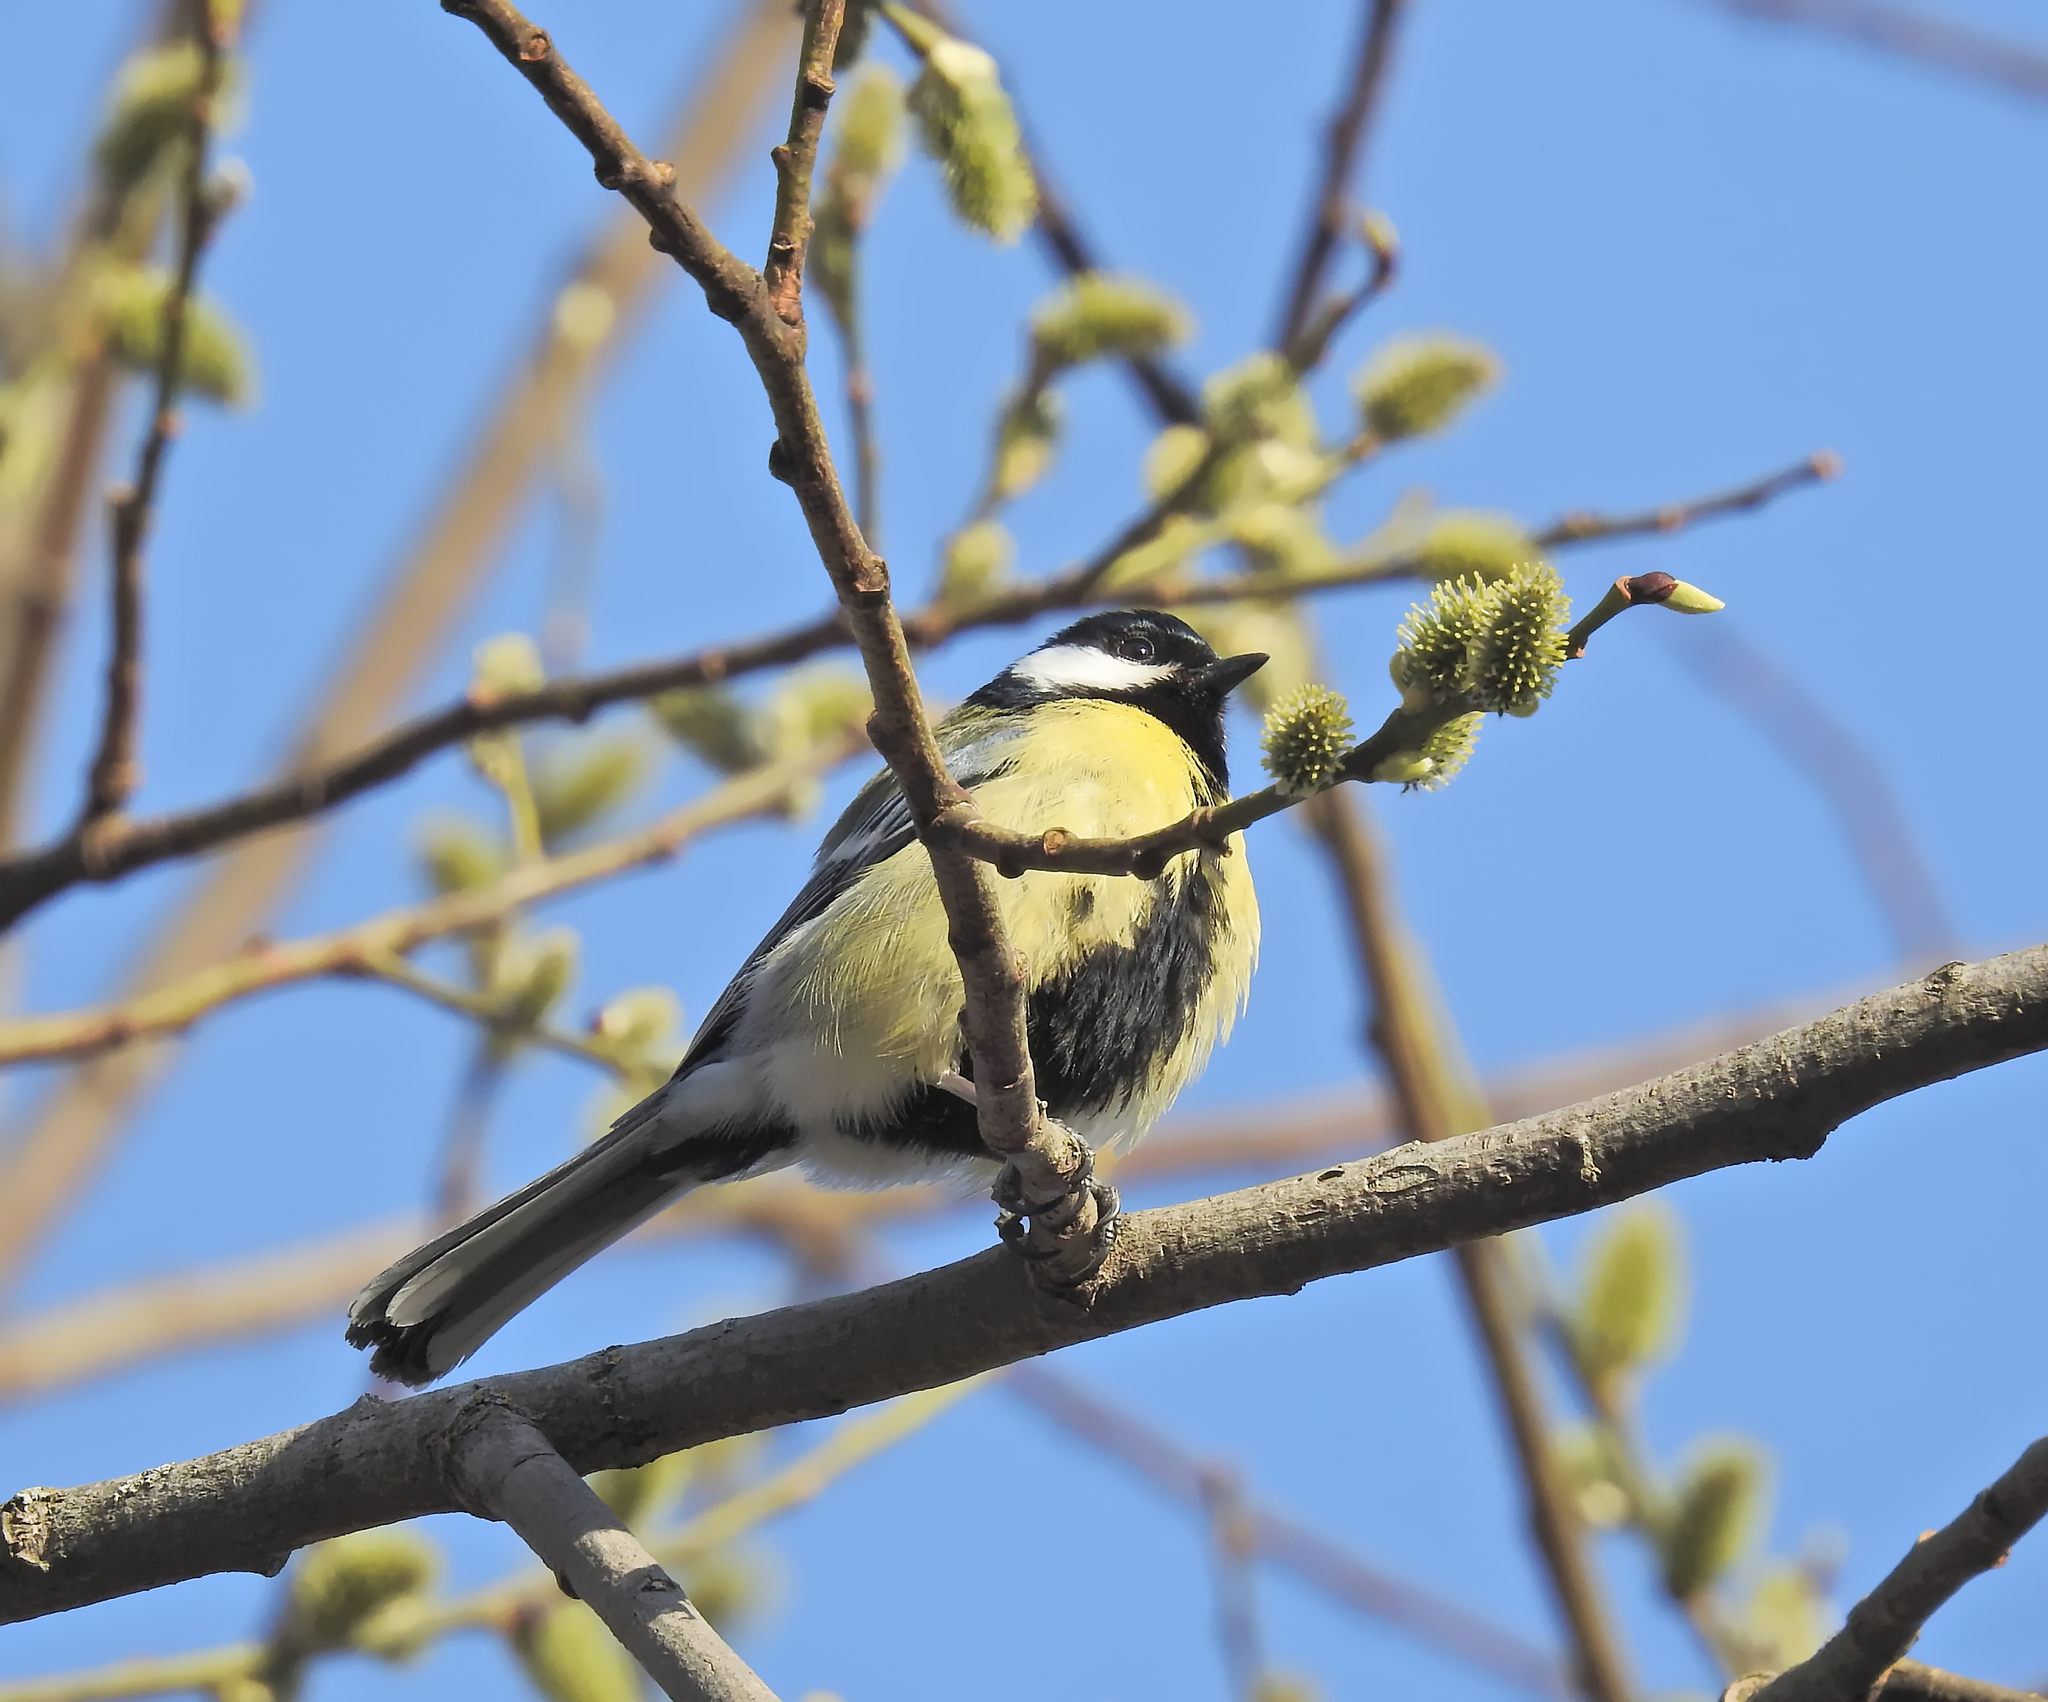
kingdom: Animalia
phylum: Chordata
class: Aves
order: Passeriformes
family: Paridae
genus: Parus
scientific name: Parus major
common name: Great tit
